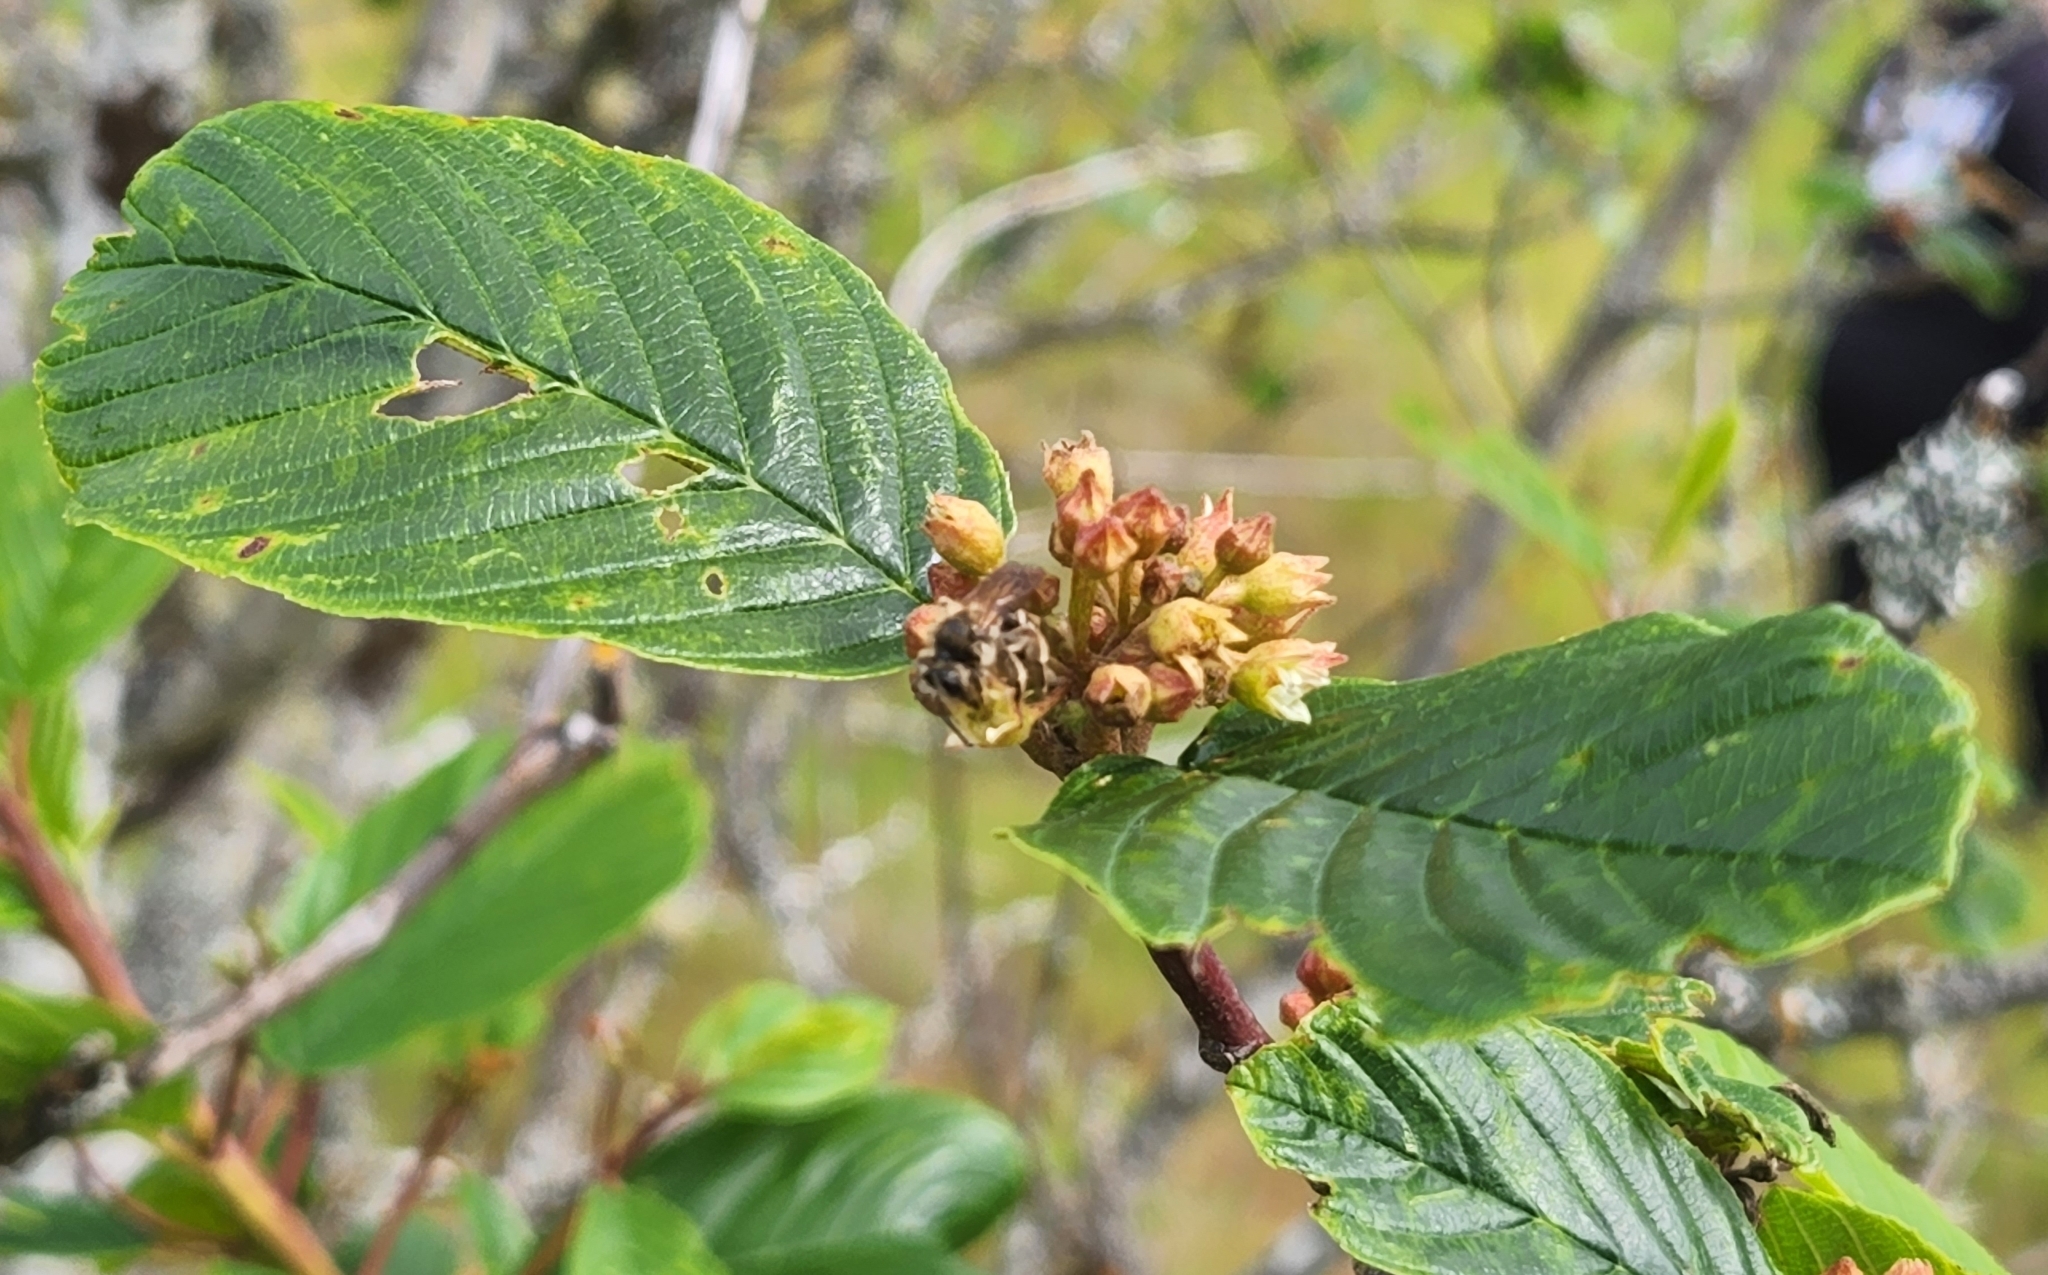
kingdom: Plantae
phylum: Tracheophyta
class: Magnoliopsida
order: Rosales
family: Rhamnaceae
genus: Frangula
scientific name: Frangula purshiana
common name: Cascara buckthorn
